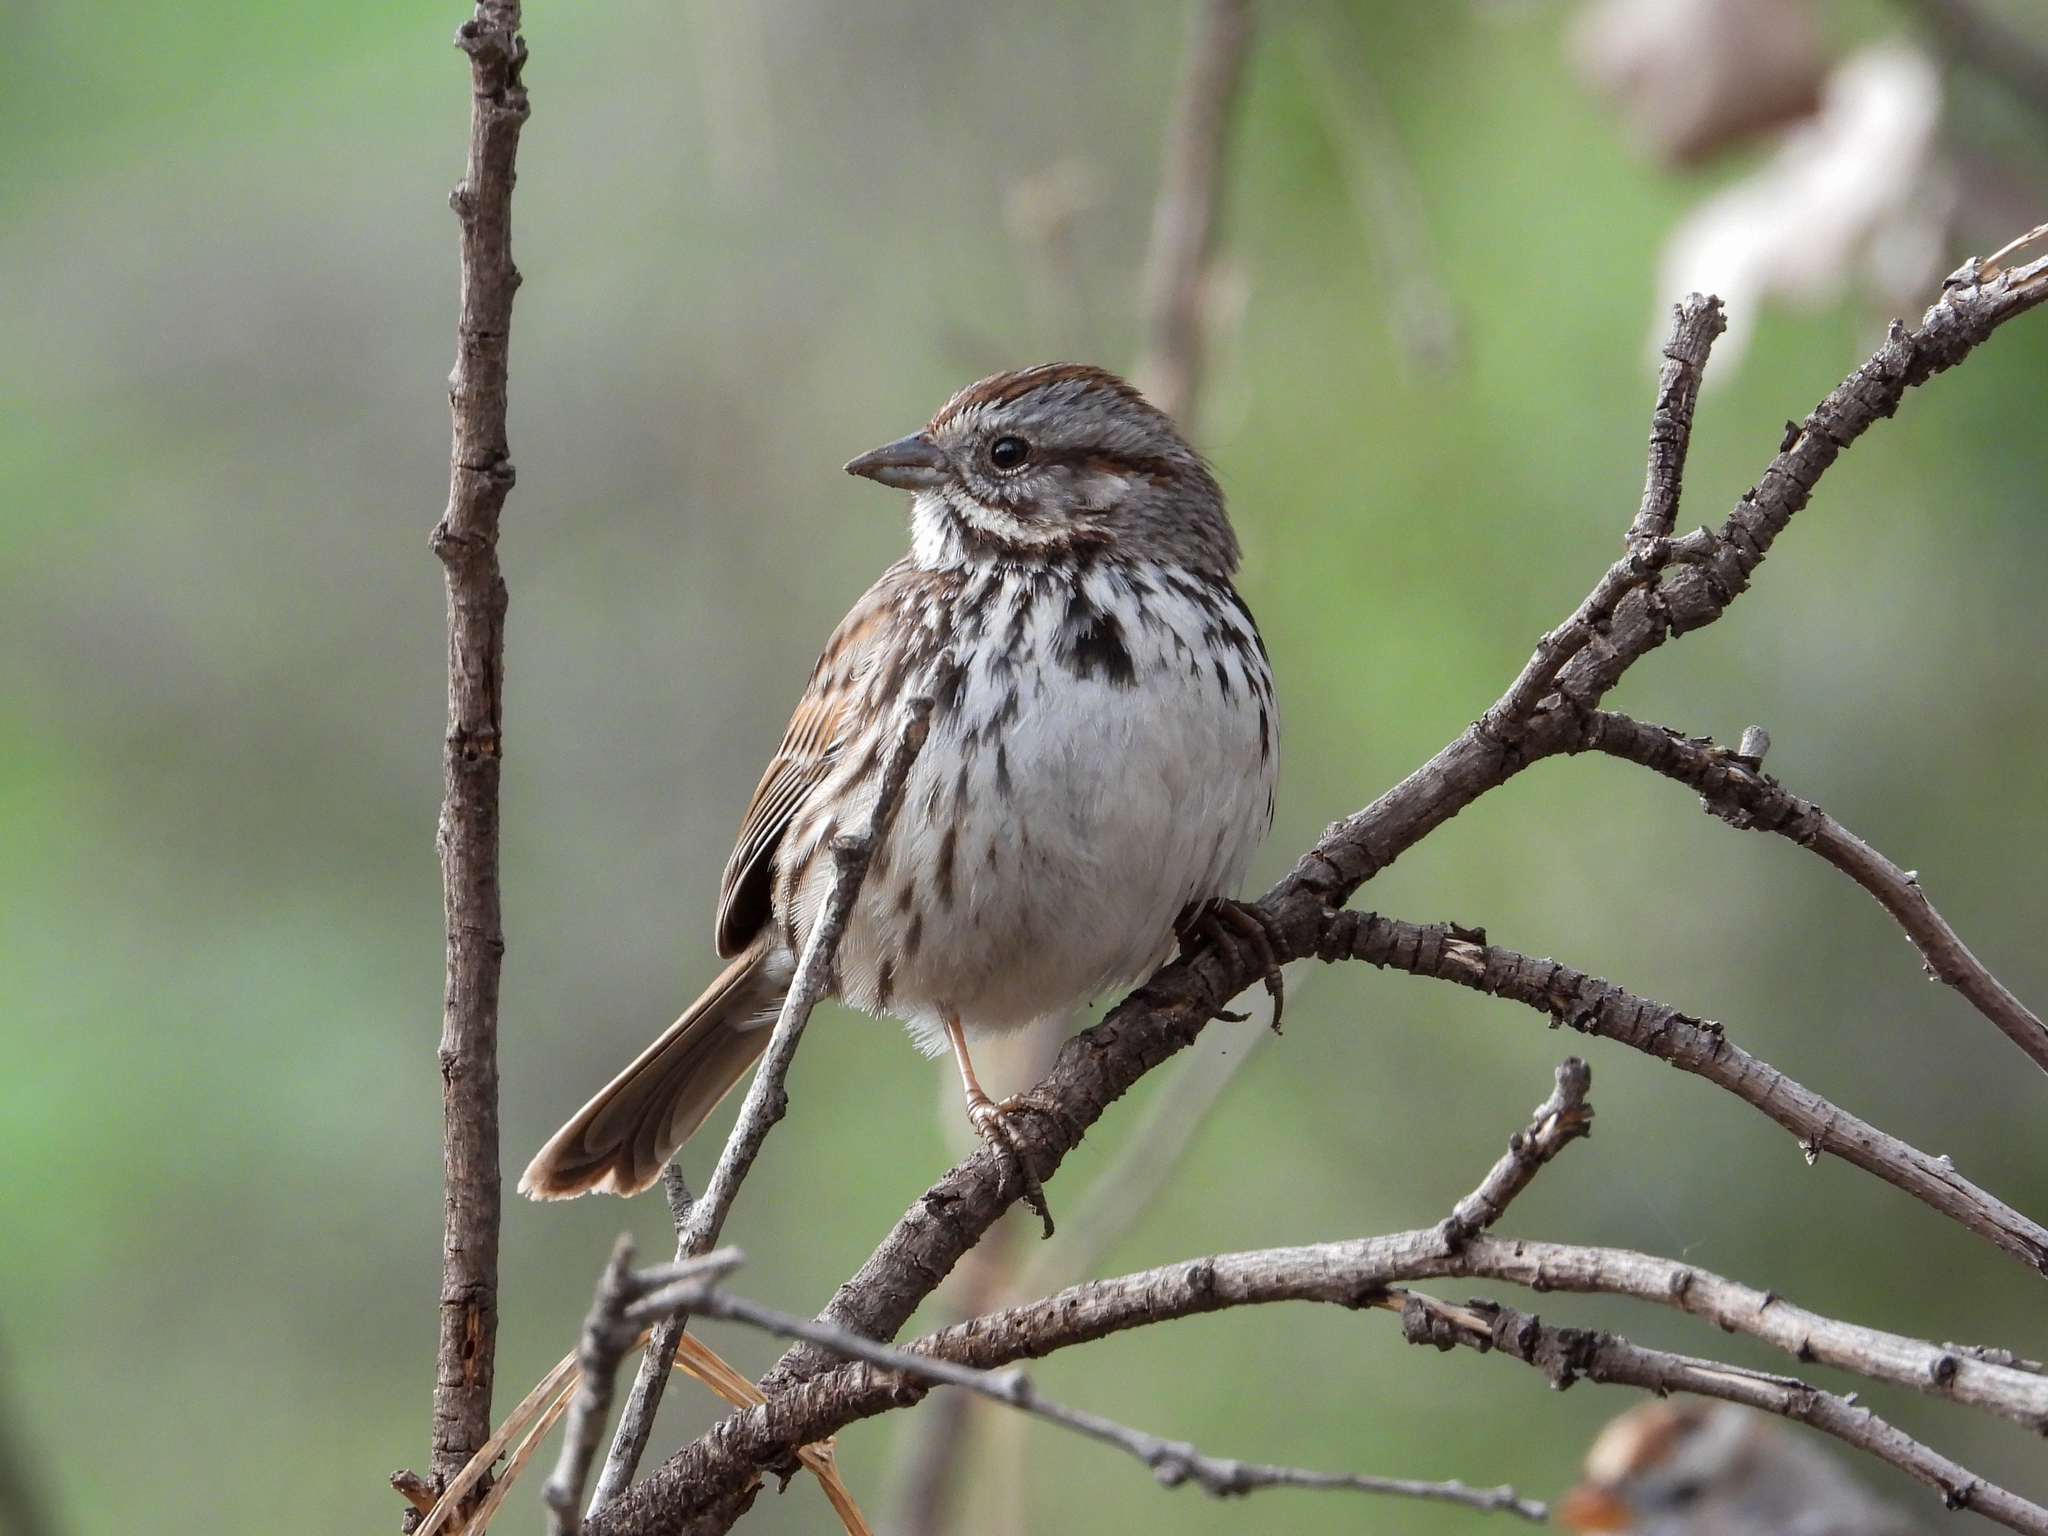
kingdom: Animalia
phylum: Chordata
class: Aves
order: Passeriformes
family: Passerellidae
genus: Melospiza
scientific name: Melospiza melodia
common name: Song sparrow
